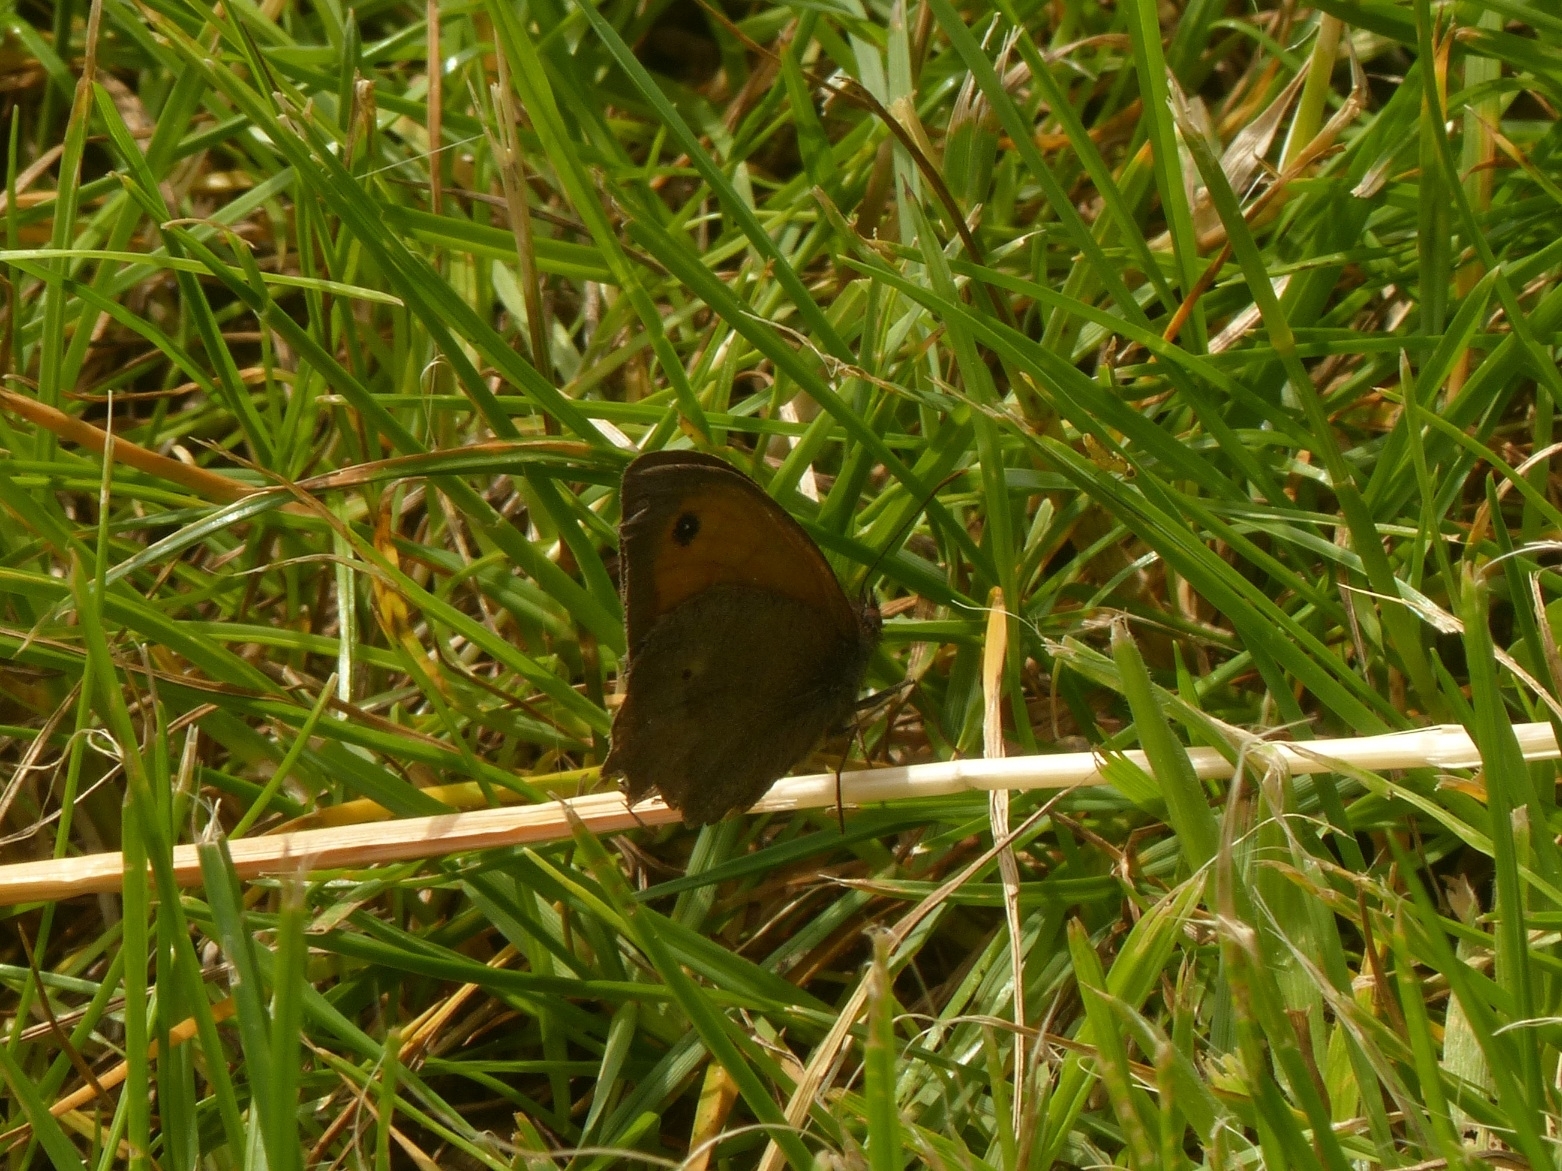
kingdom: Animalia
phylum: Arthropoda
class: Insecta
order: Lepidoptera
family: Nymphalidae
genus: Maniola
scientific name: Maniola jurtina
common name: Meadow brown
